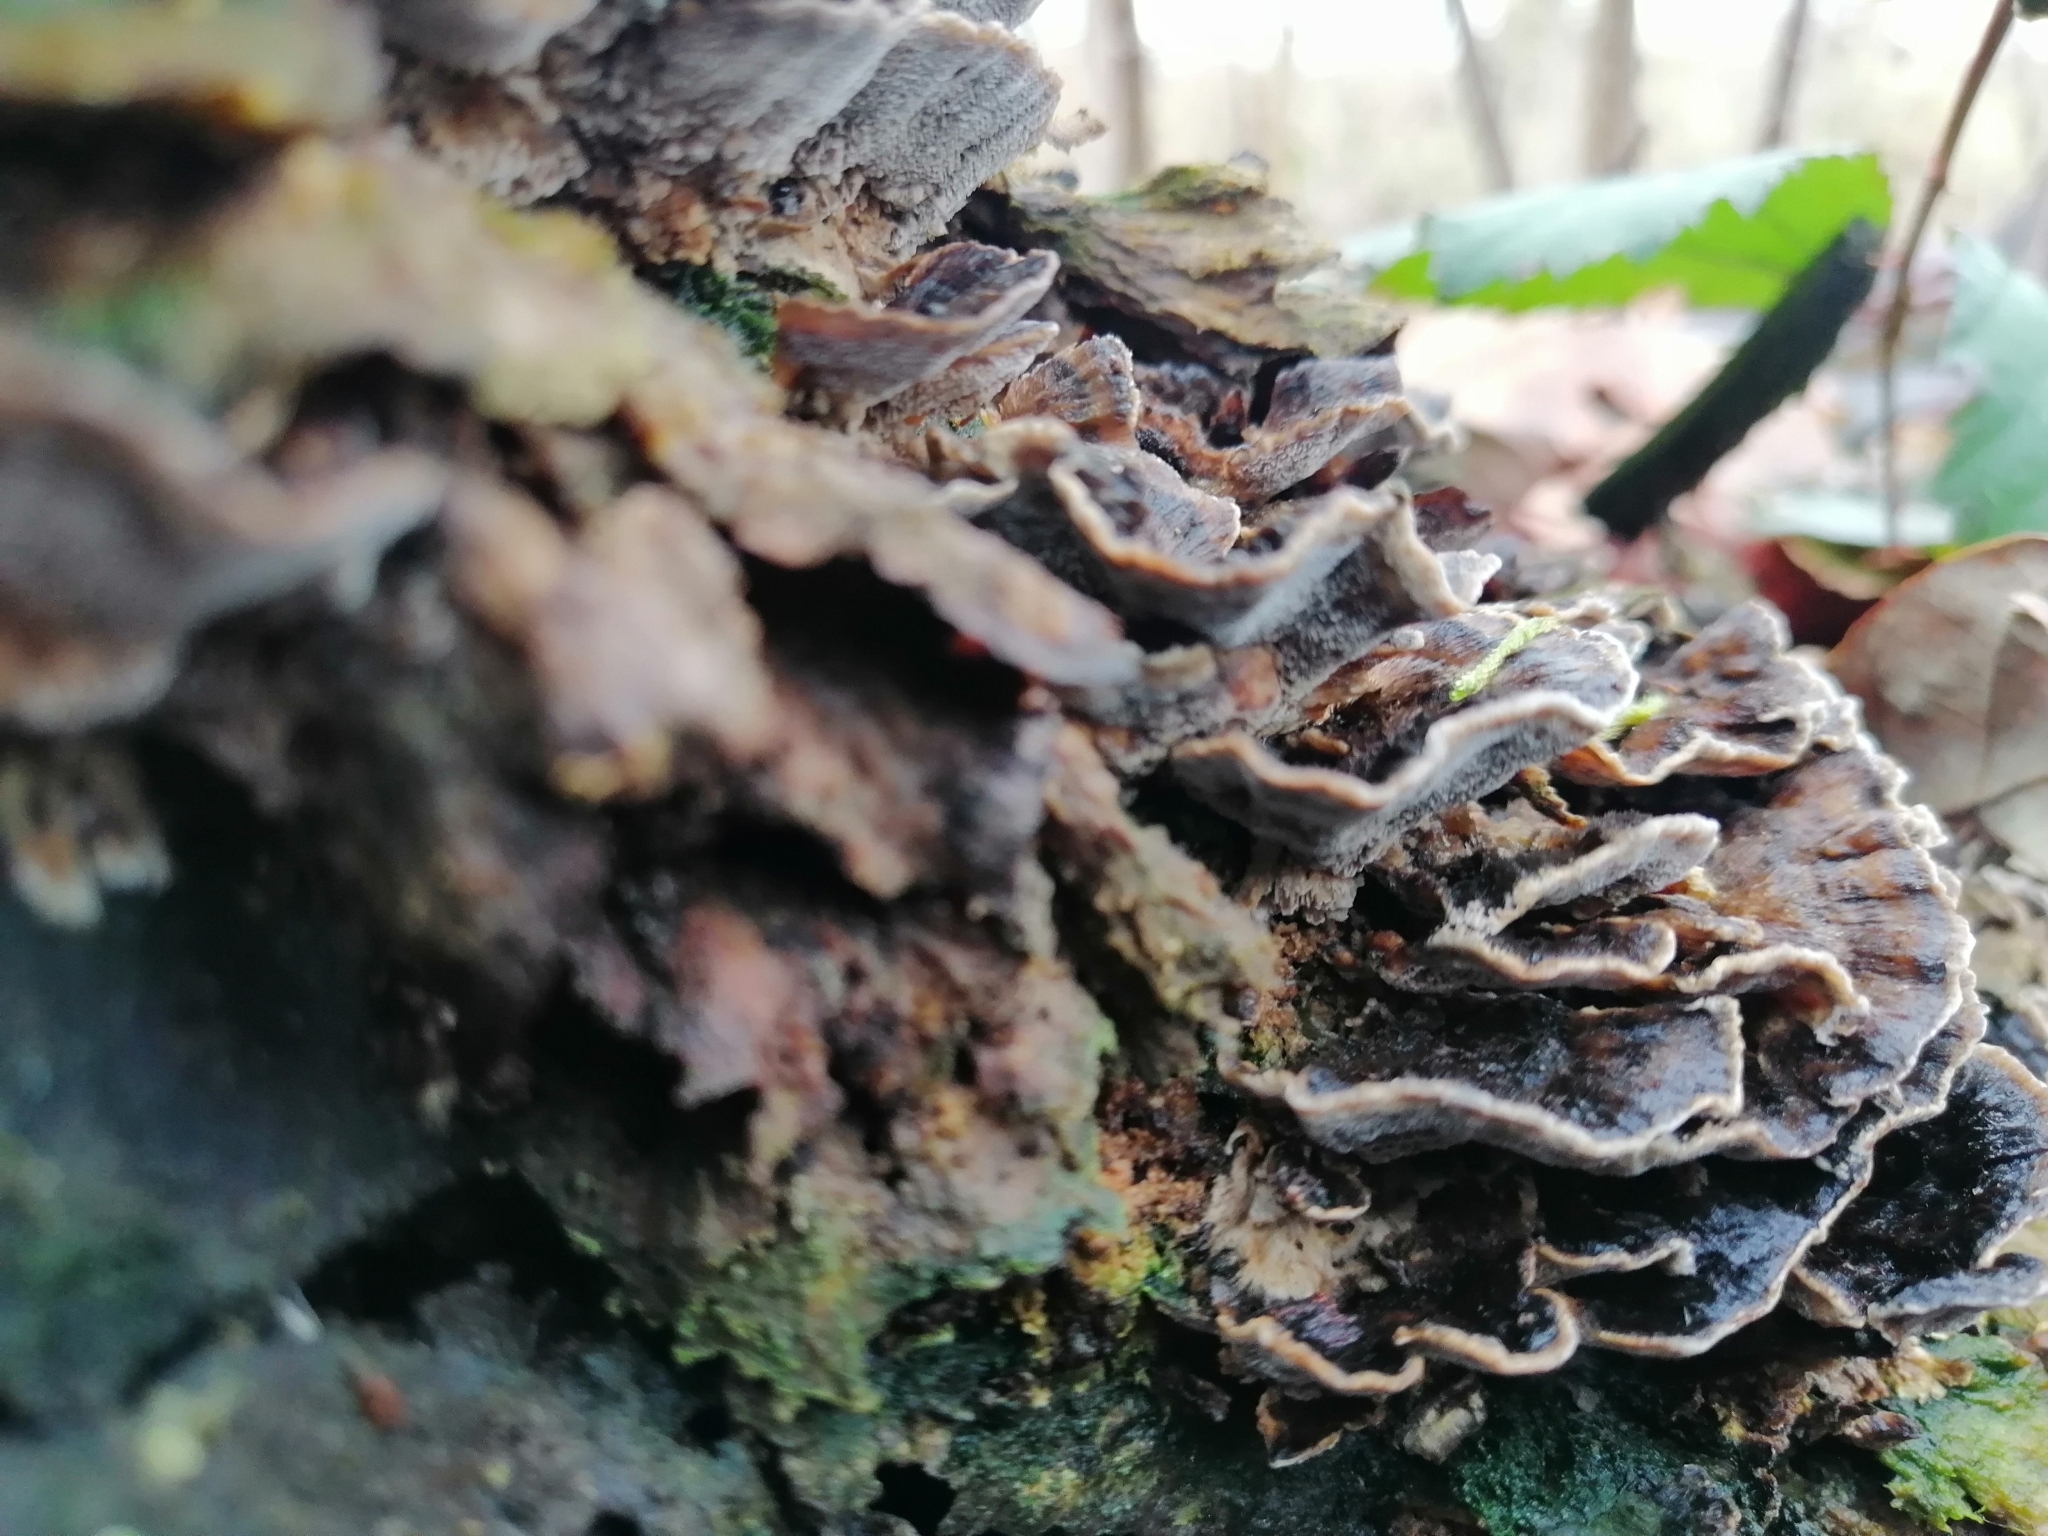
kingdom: Fungi
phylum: Basidiomycota
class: Agaricomycetes
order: Polyporales
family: Phanerochaetaceae
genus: Bjerkandera
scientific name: Bjerkandera adusta
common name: Smoky bracket
